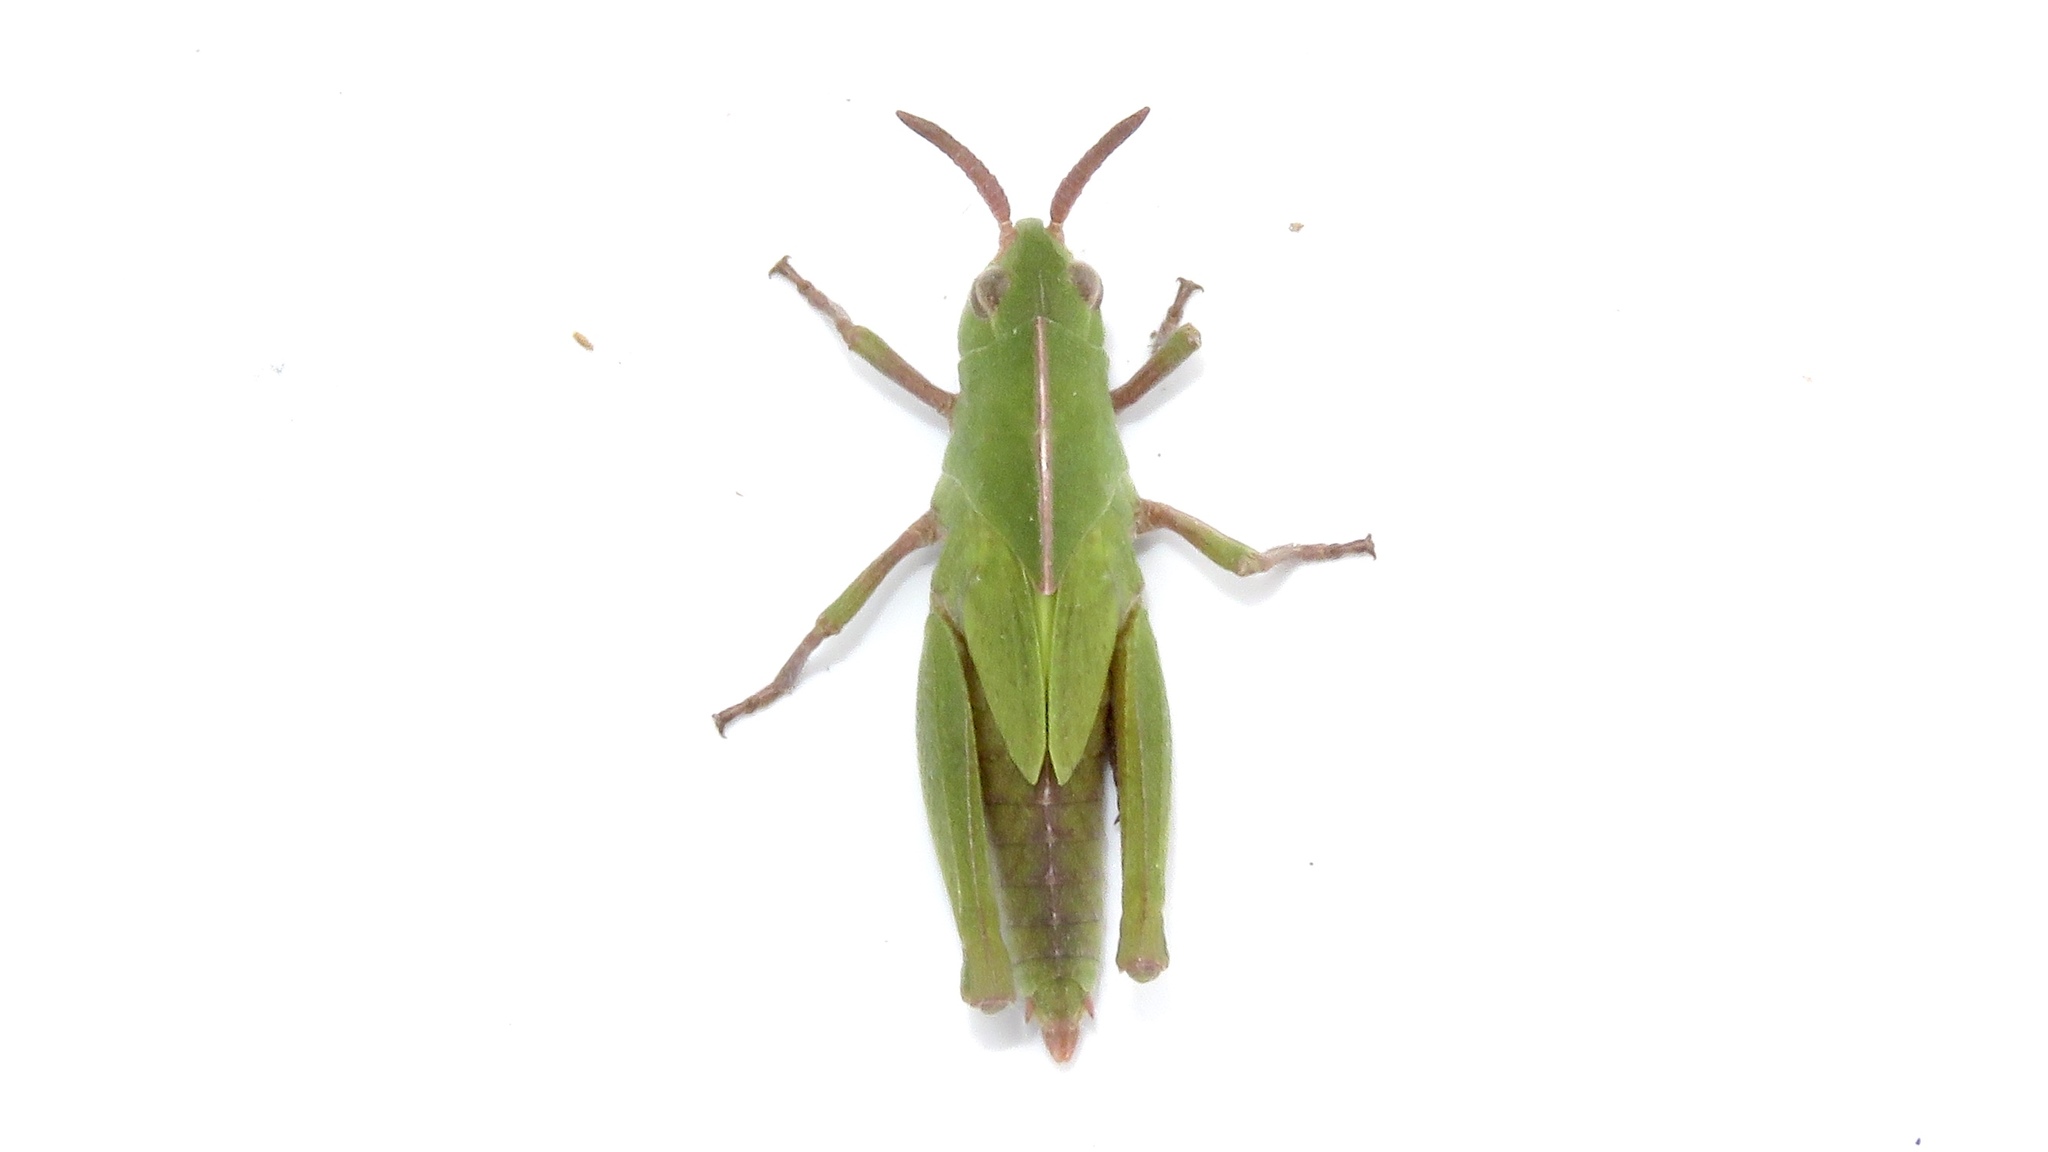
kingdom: Animalia
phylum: Arthropoda
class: Insecta
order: Orthoptera
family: Acrididae
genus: Chortophaga
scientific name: Chortophaga viridifasciata
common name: Green-striped grasshopper
